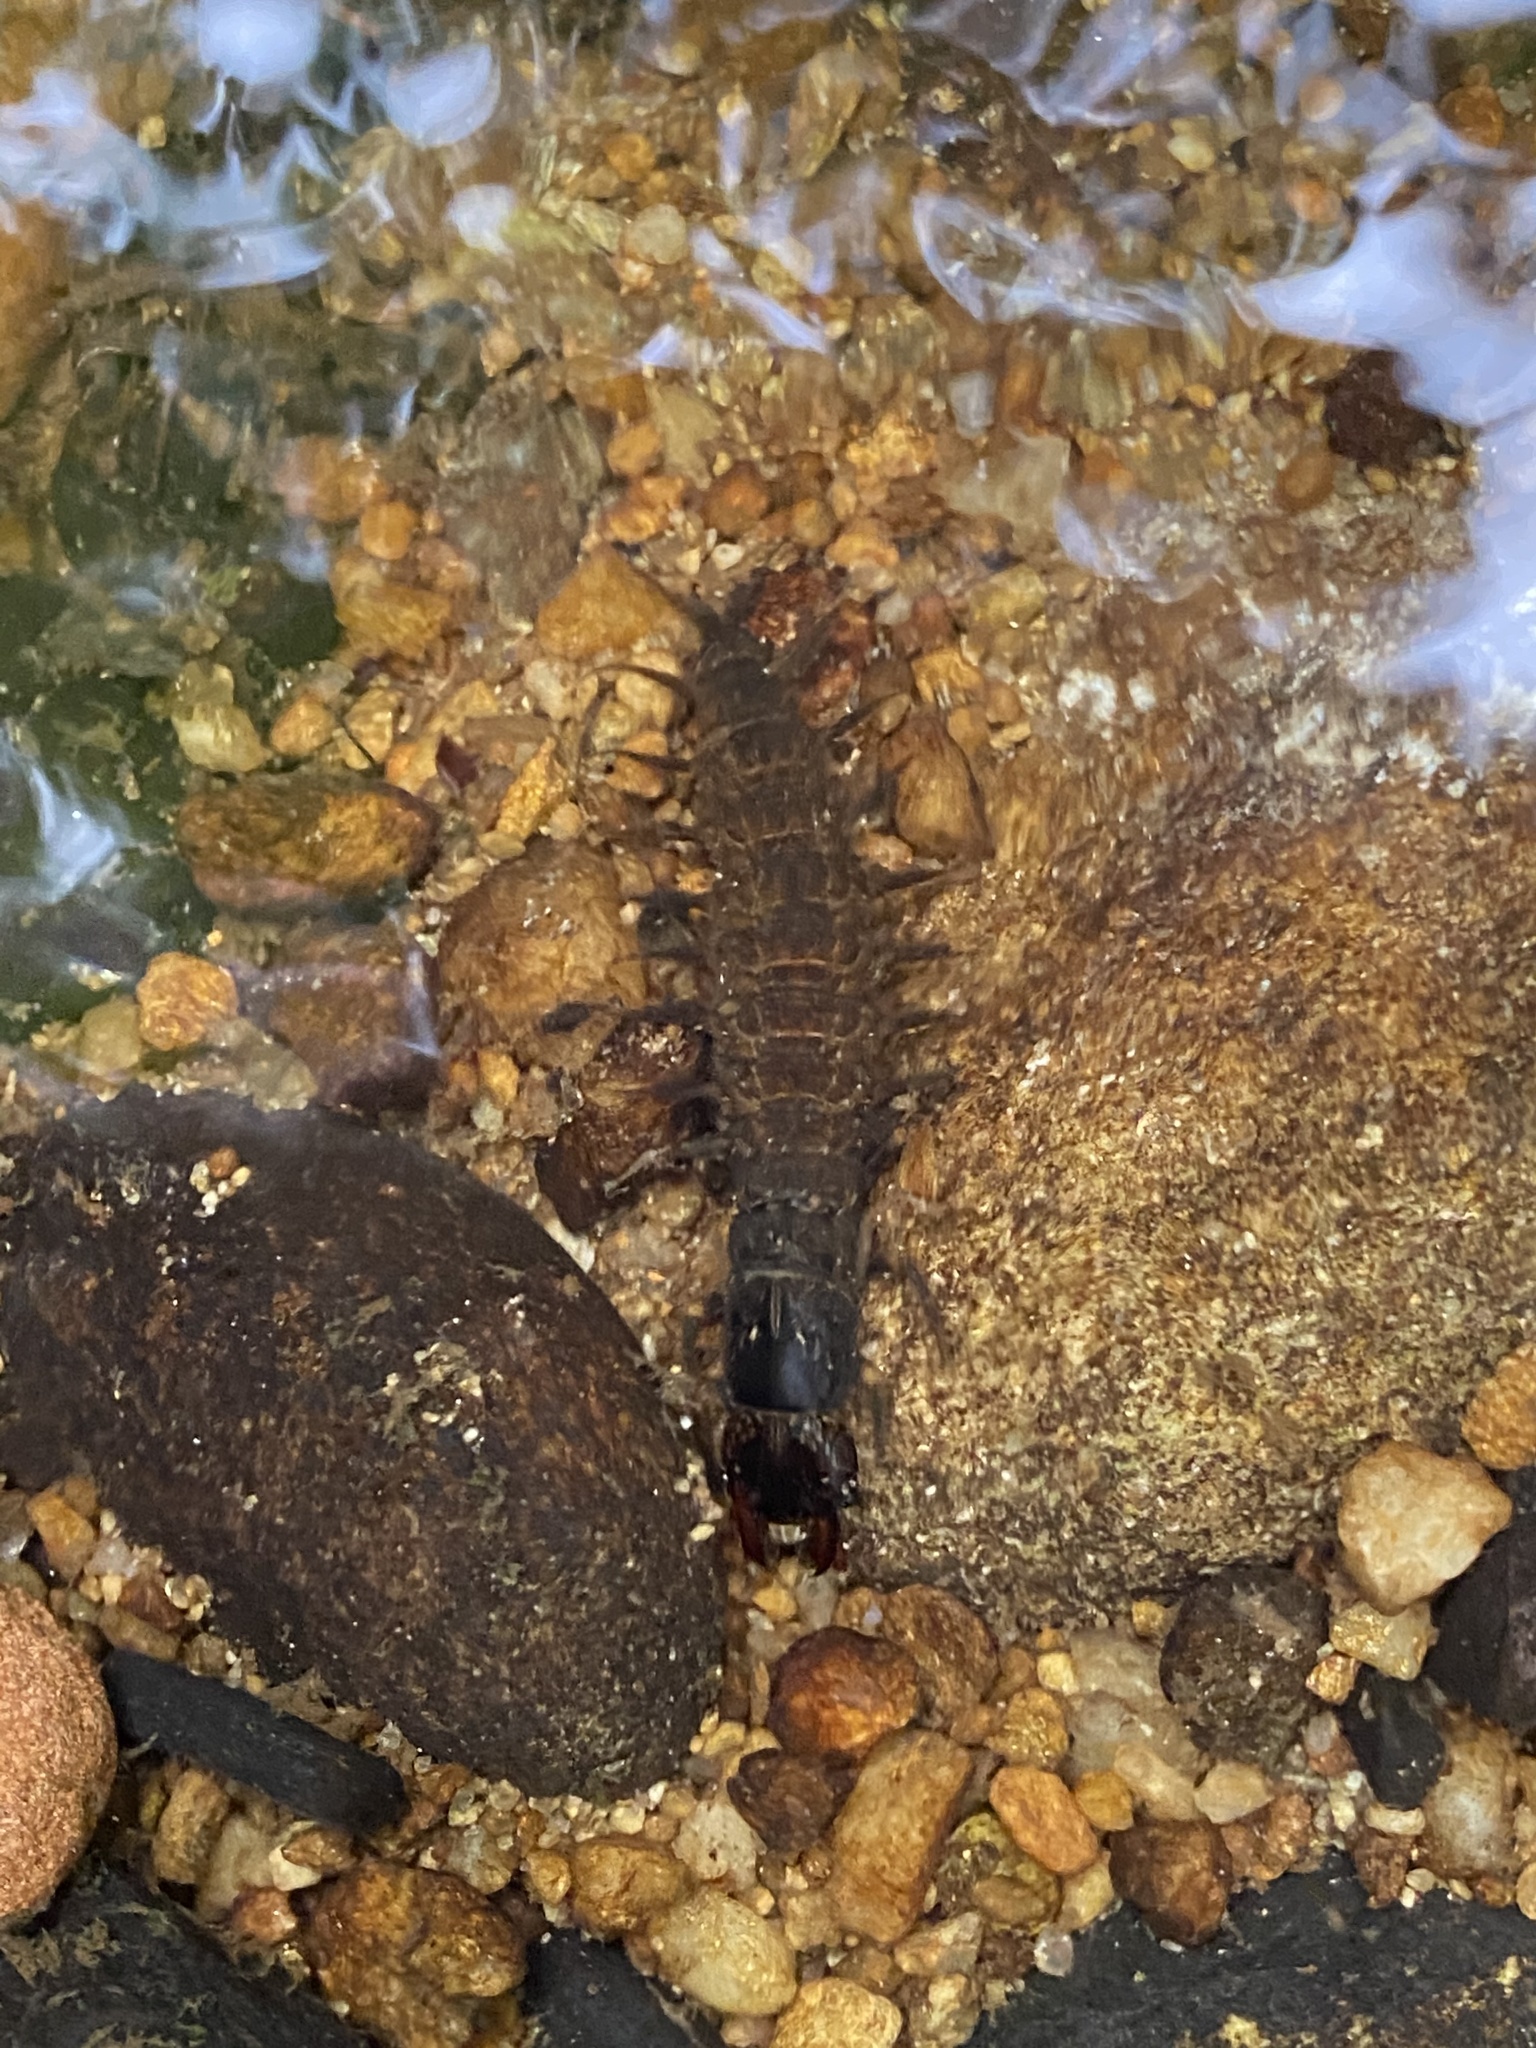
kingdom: Animalia
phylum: Arthropoda
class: Insecta
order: Megaloptera
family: Corydalidae
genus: Corydalus
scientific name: Corydalus cornutus
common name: Dobsonfly
